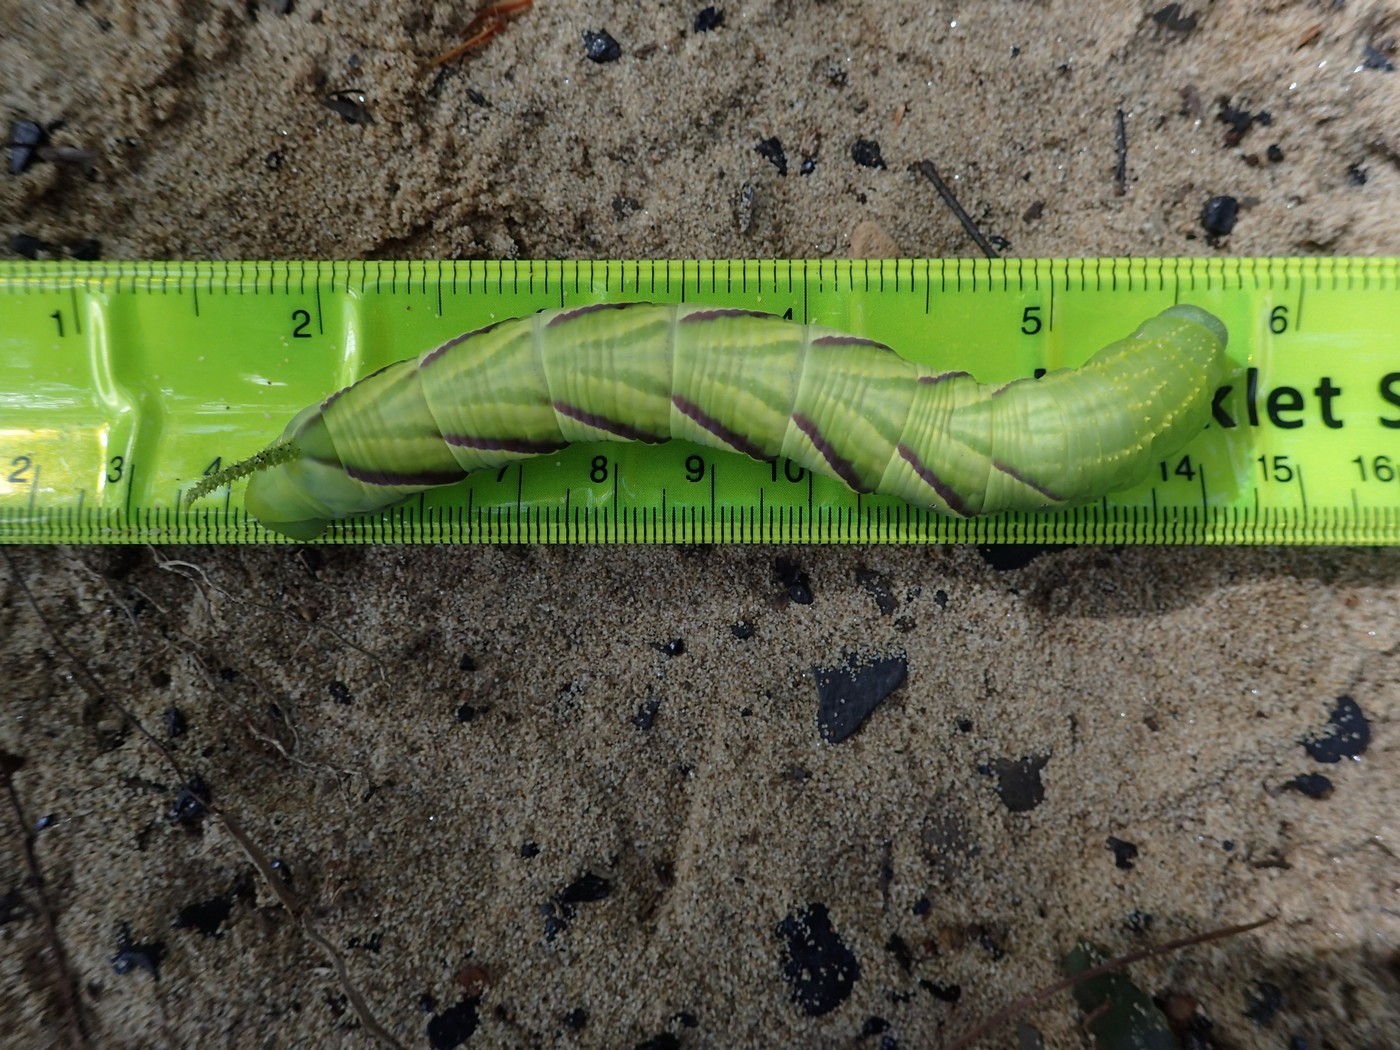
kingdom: Animalia
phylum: Arthropoda
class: Insecta
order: Lepidoptera
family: Sphingidae
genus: Manduca
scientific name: Manduca rustica
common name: Rustic sphinx
